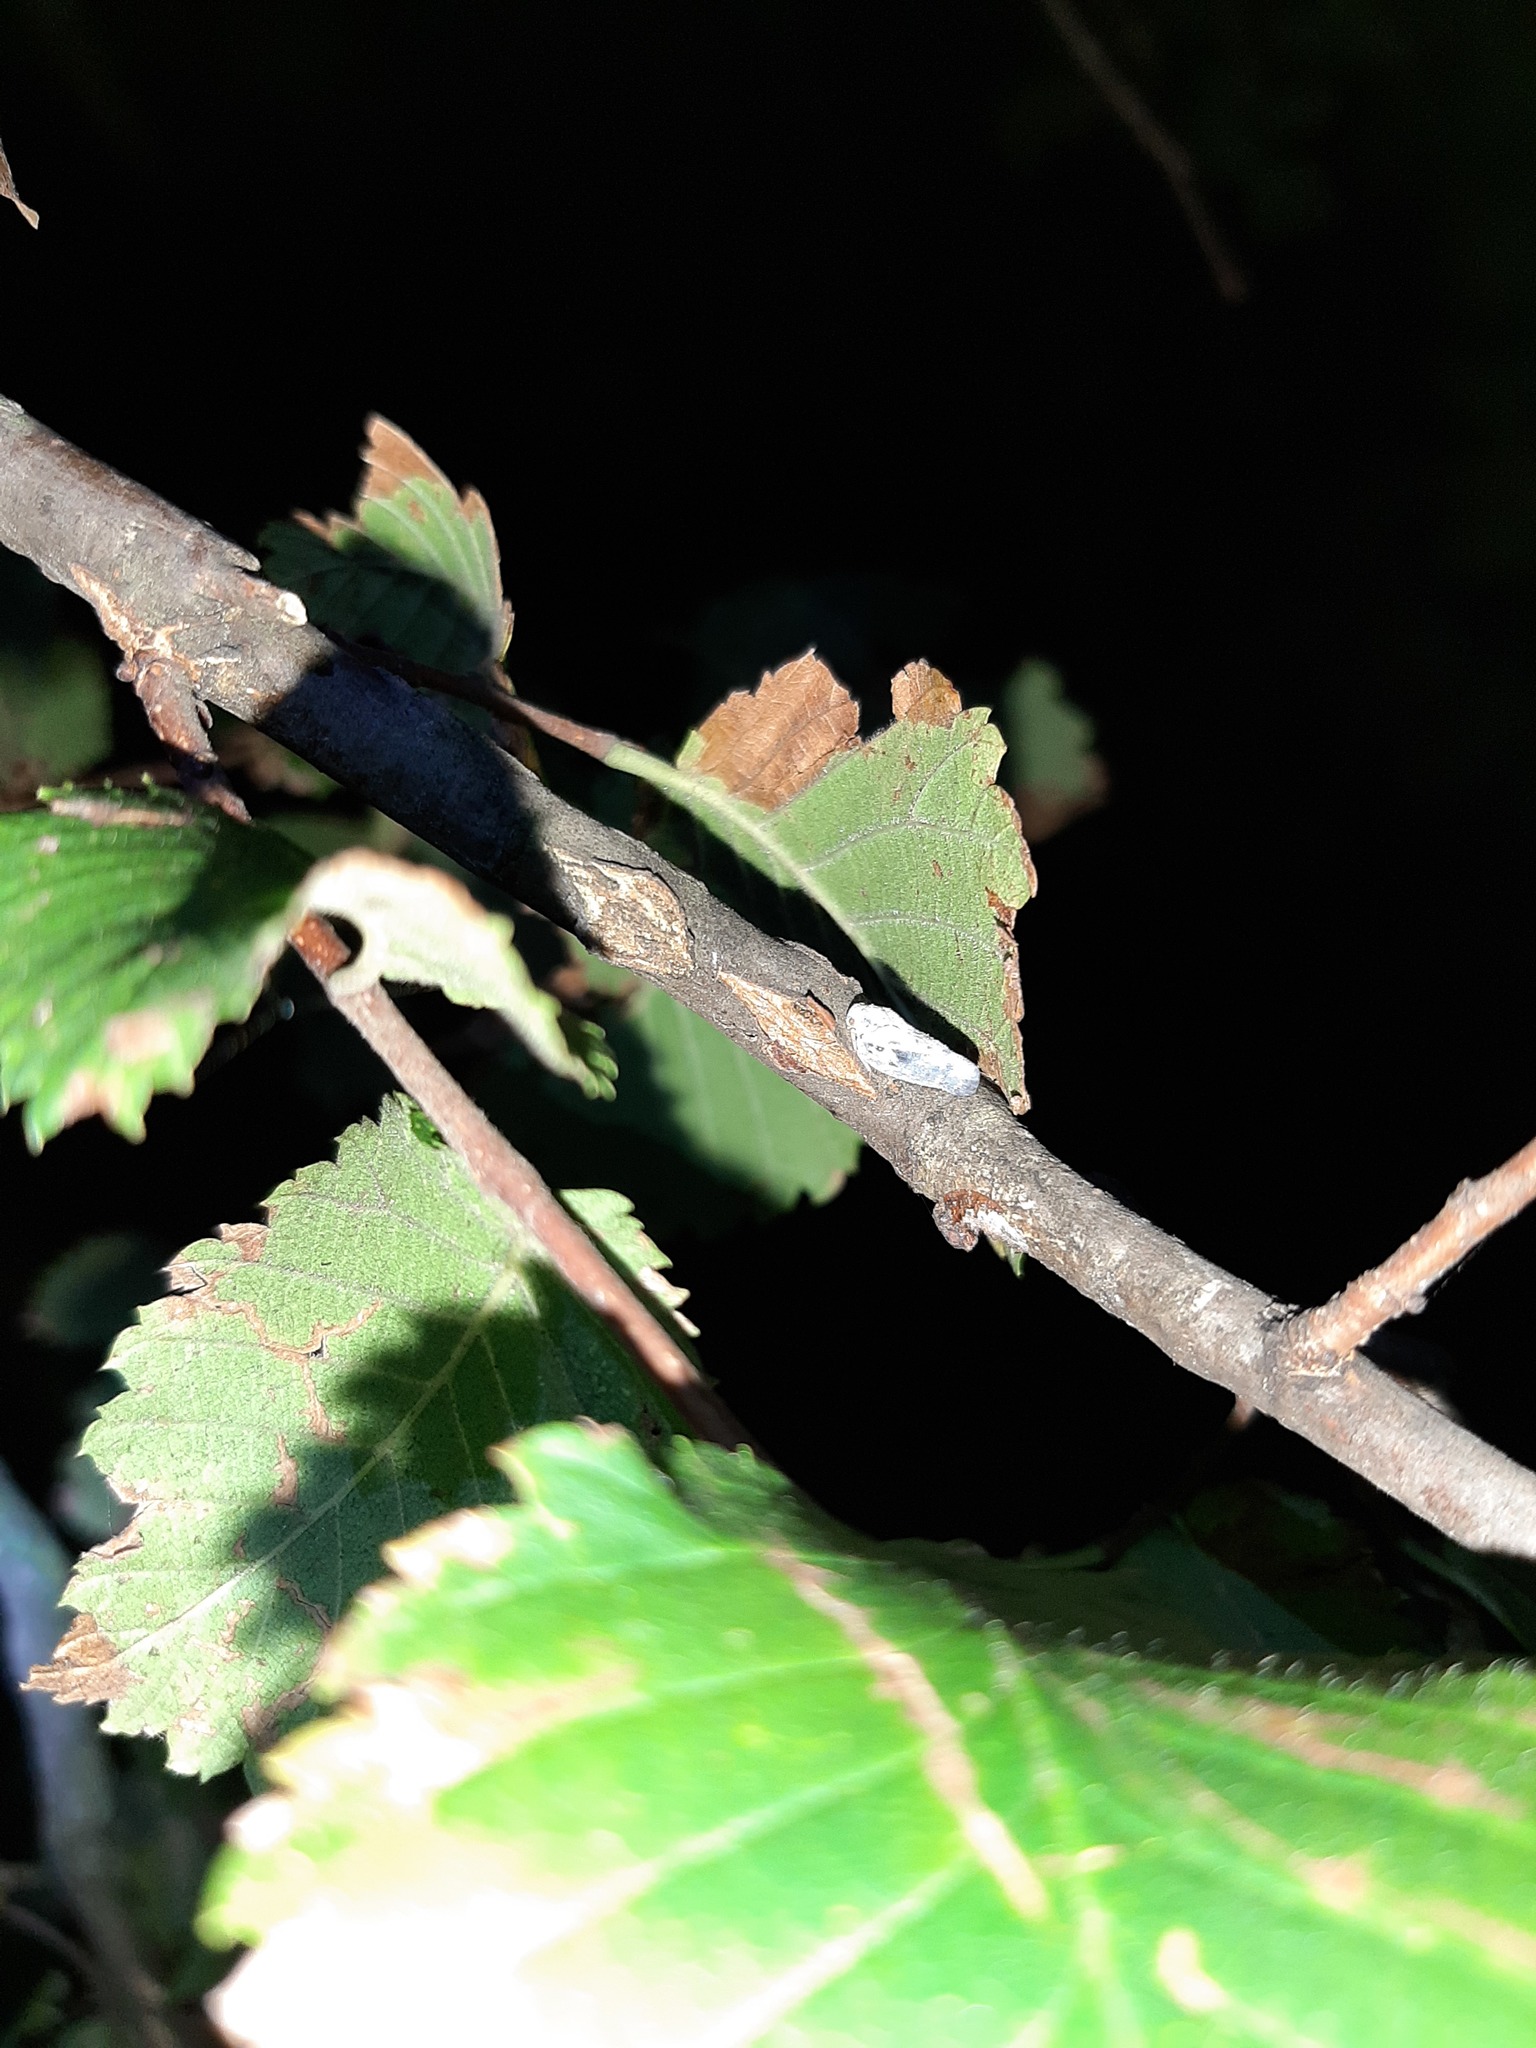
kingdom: Animalia
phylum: Arthropoda
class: Insecta
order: Hemiptera
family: Flatidae
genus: Metcalfa
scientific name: Metcalfa pruinosa
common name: Citrus flatid planthopper
